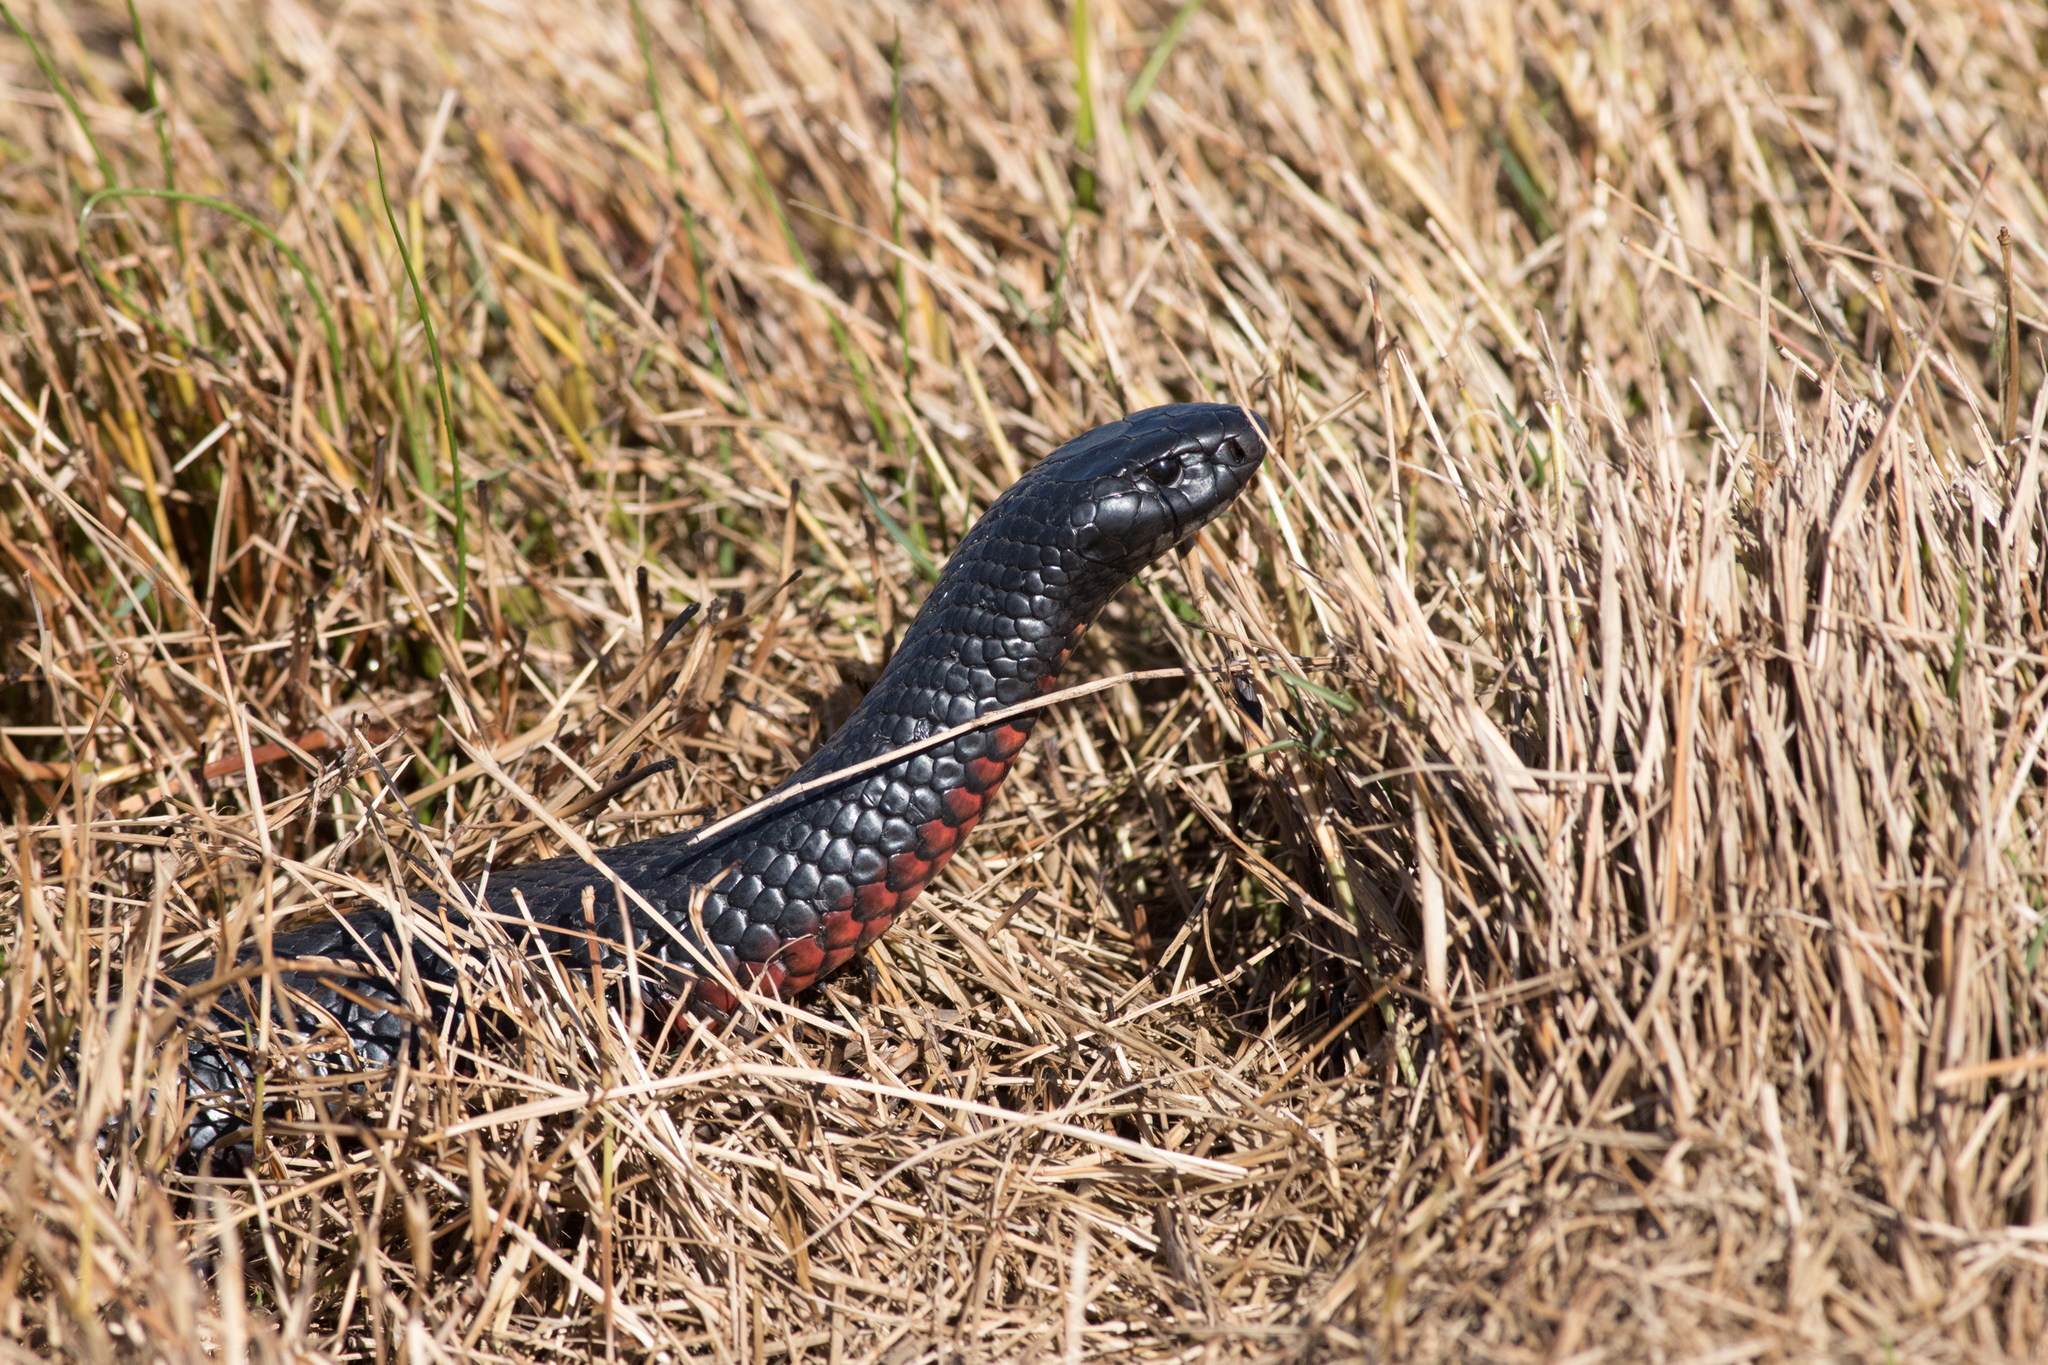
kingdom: Animalia
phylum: Chordata
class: Squamata
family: Elapidae
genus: Pseudechis
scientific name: Pseudechis porphyriacus
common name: Australian black snake
